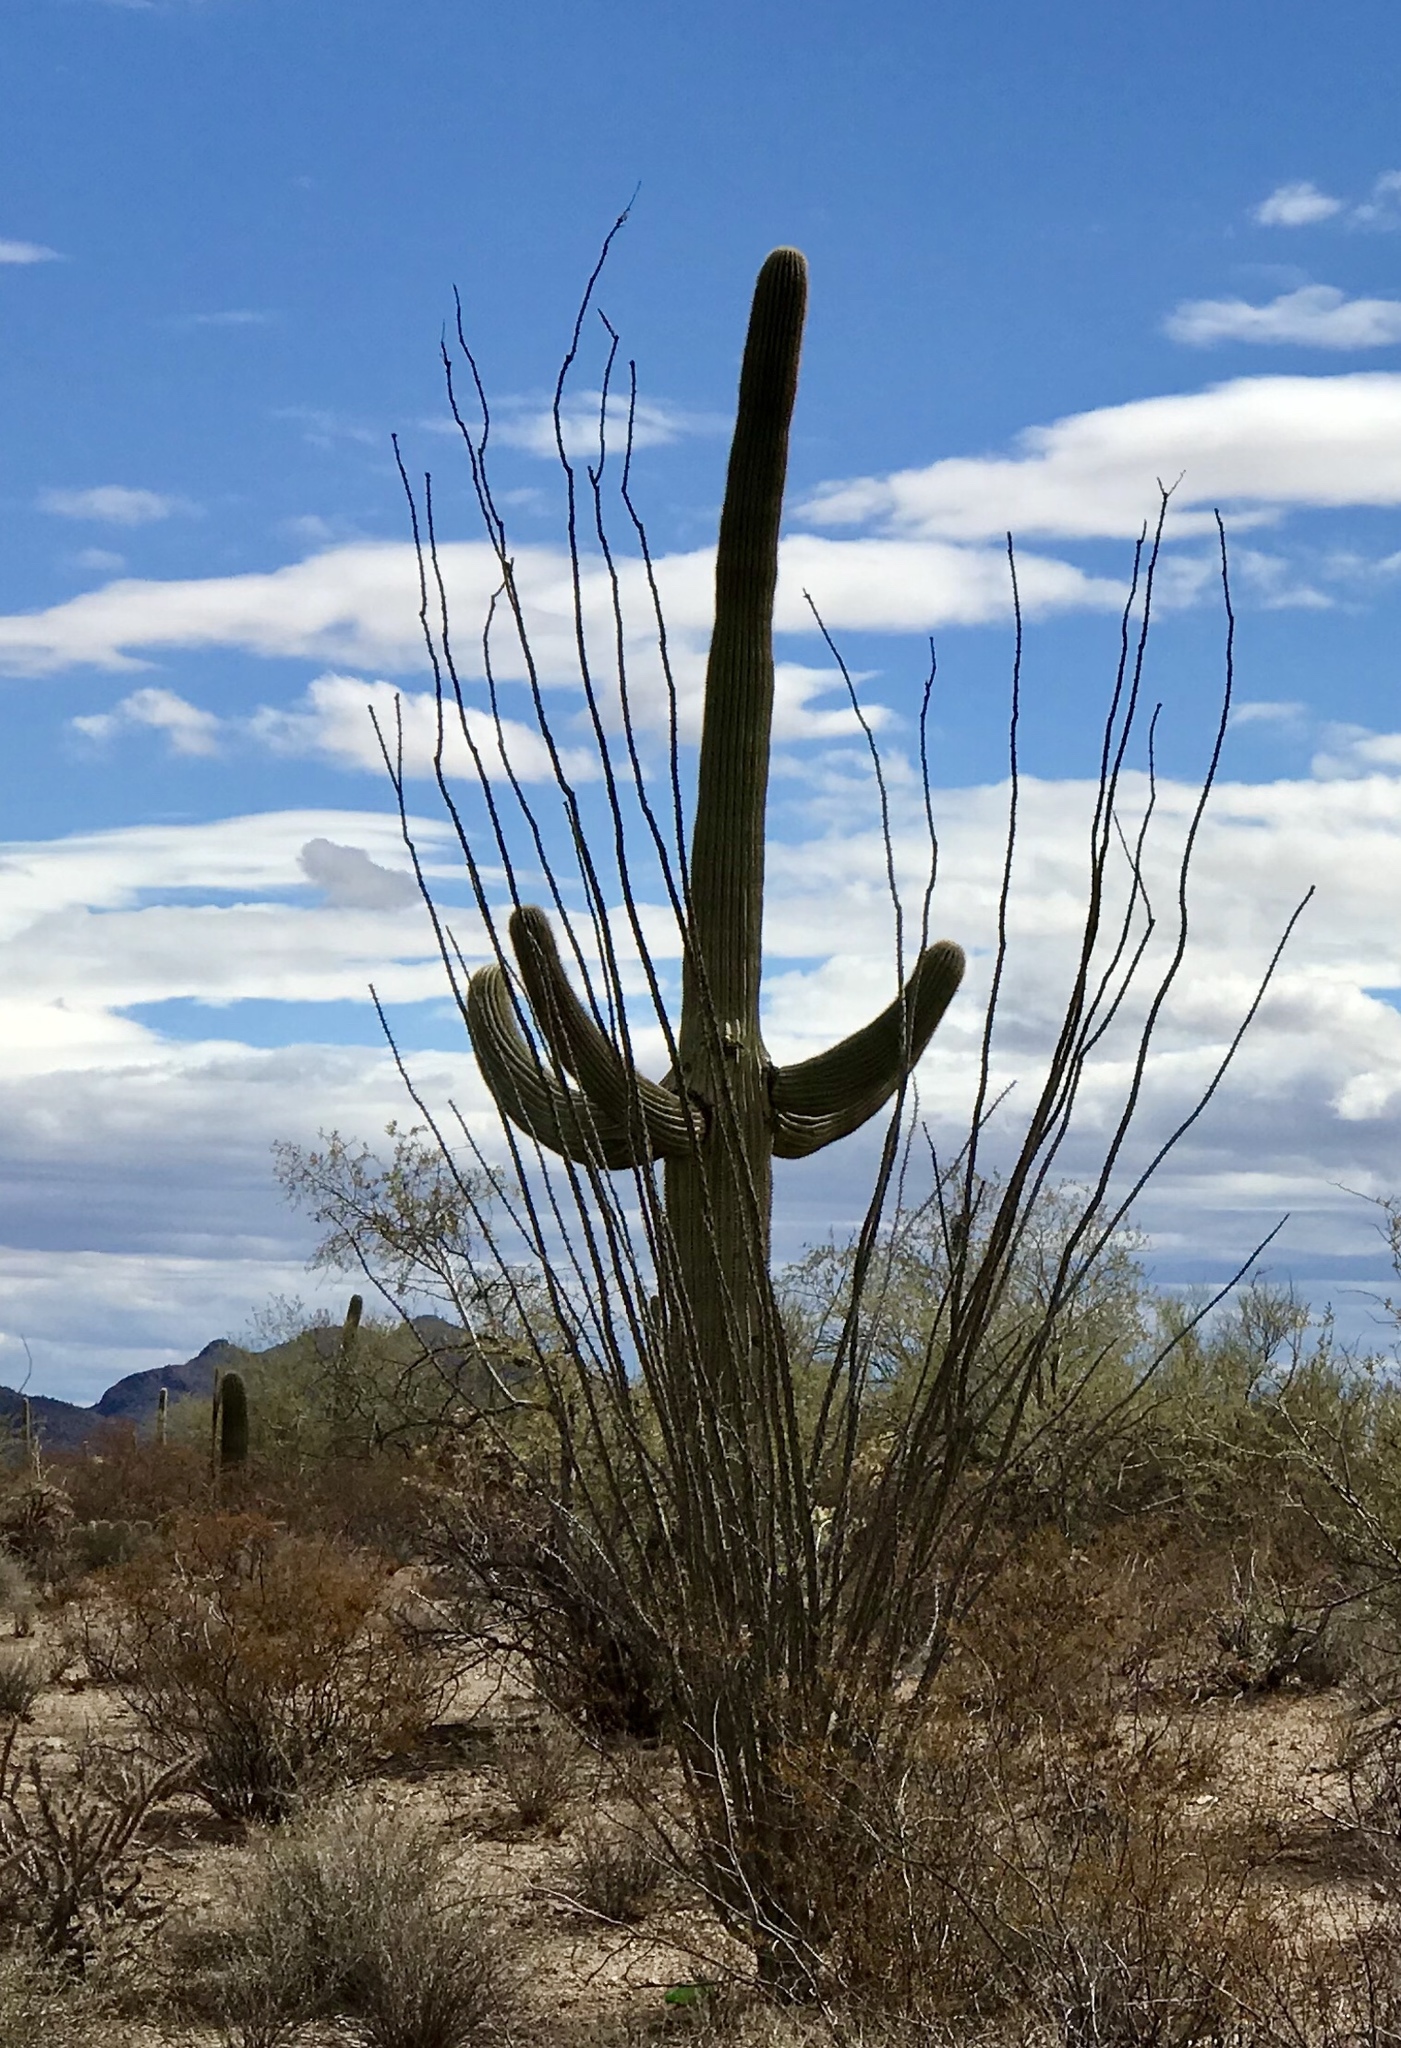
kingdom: Plantae
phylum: Tracheophyta
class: Magnoliopsida
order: Ericales
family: Fouquieriaceae
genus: Fouquieria
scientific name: Fouquieria splendens
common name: Vine-cactus
